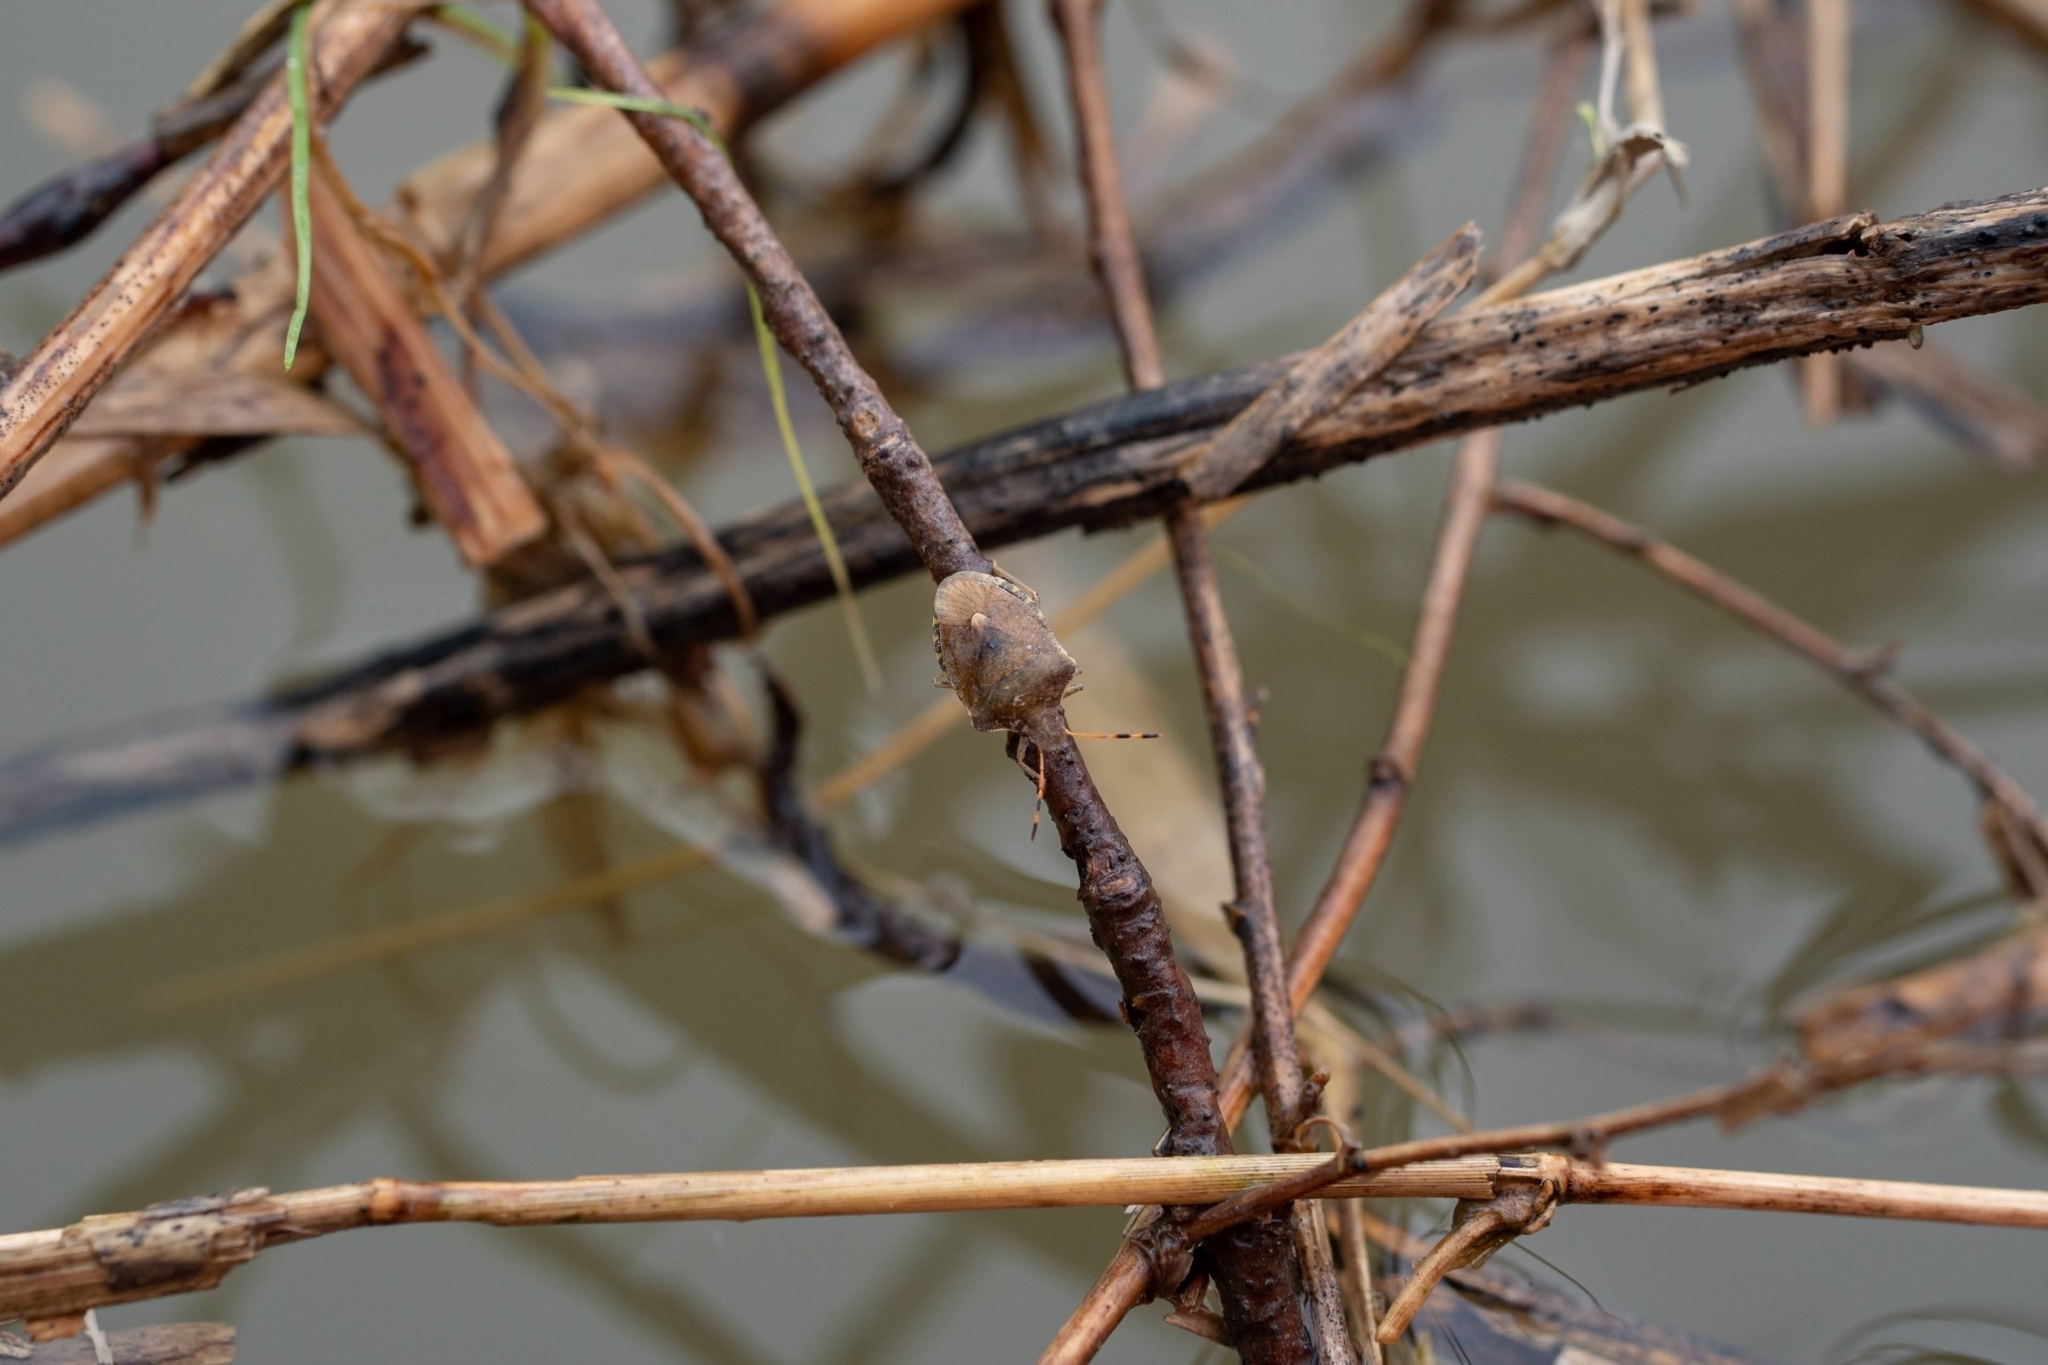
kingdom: Animalia
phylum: Arthropoda
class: Insecta
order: Hemiptera
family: Pentatomidae
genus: Holcostethus
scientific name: Holcostethus strictus
